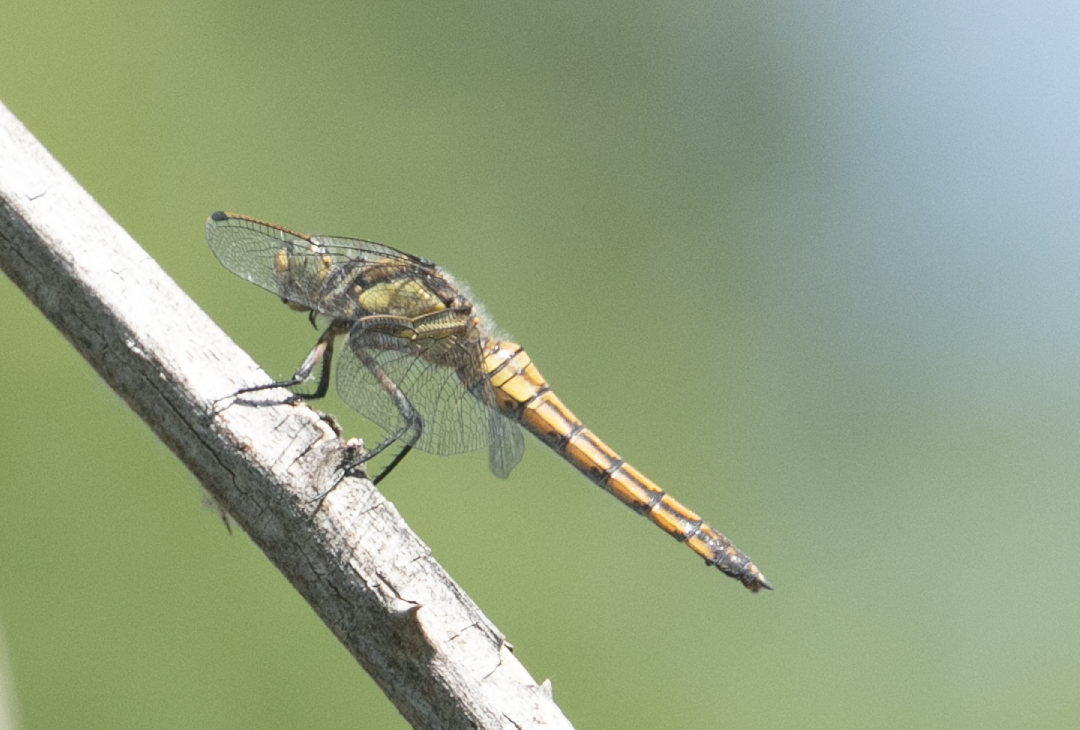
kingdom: Animalia
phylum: Arthropoda
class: Insecta
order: Odonata
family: Libellulidae
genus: Orthetrum
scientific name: Orthetrum cancellatum
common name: Black-tailed skimmer
